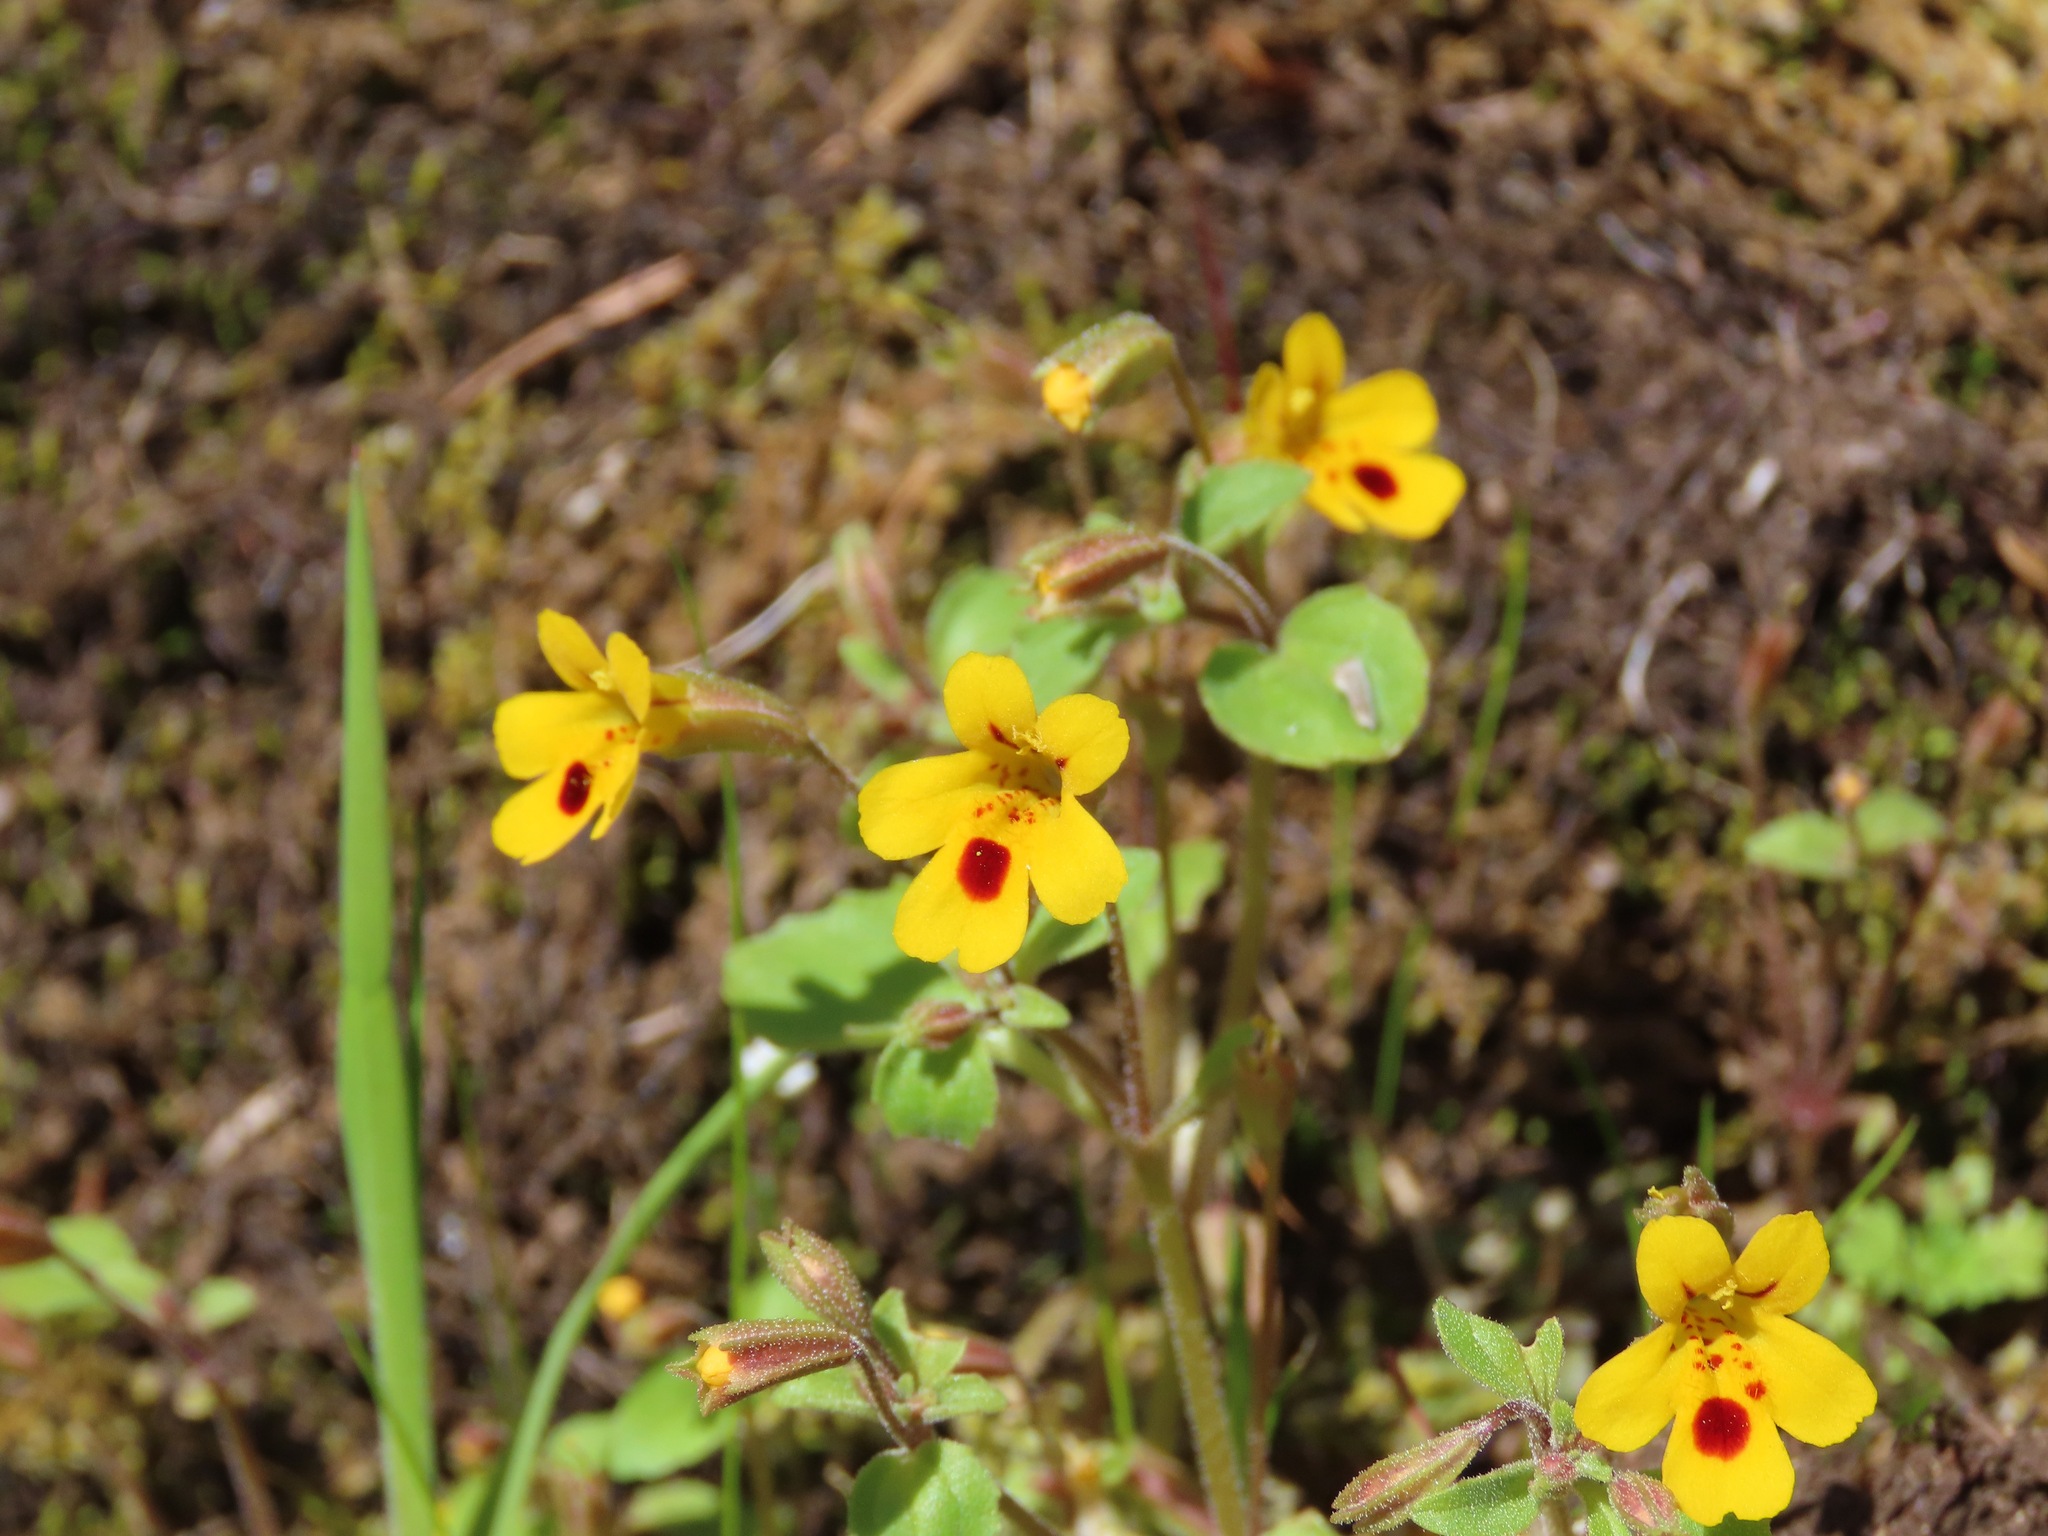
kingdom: Plantae
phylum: Tracheophyta
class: Magnoliopsida
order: Lamiales
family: Phrymaceae
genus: Erythranthe
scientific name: Erythranthe alsinoides
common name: Chickweed monkeyflower
